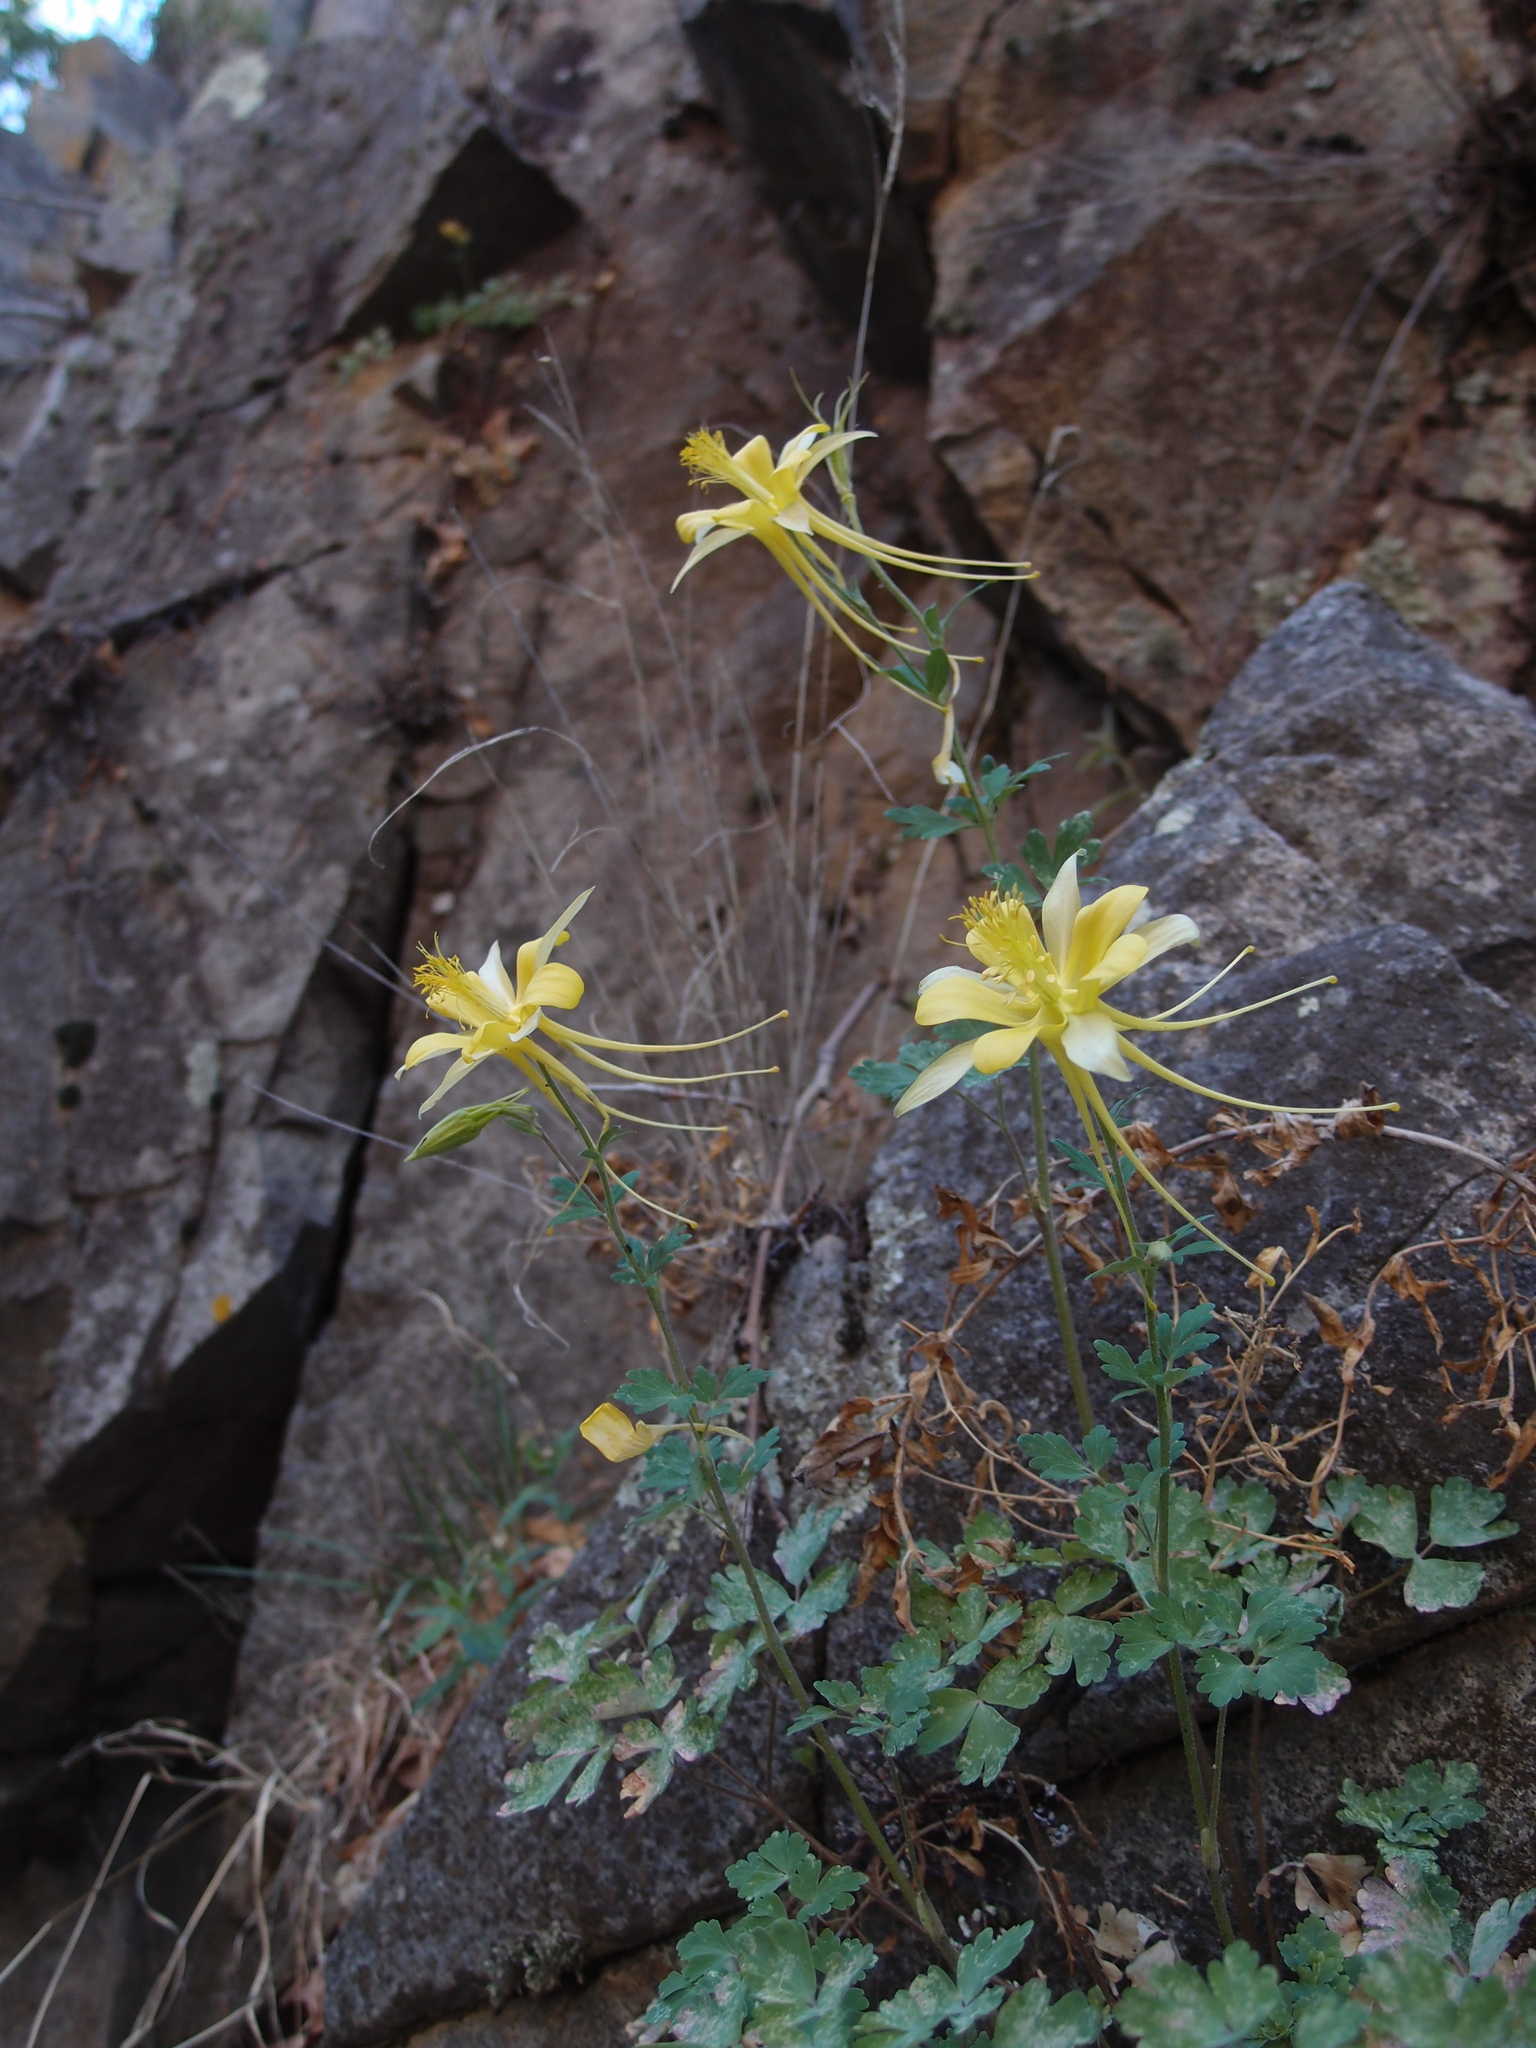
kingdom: Plantae
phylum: Tracheophyta
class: Magnoliopsida
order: Ranunculales
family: Ranunculaceae
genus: Aquilegia
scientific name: Aquilegia chrysantha
